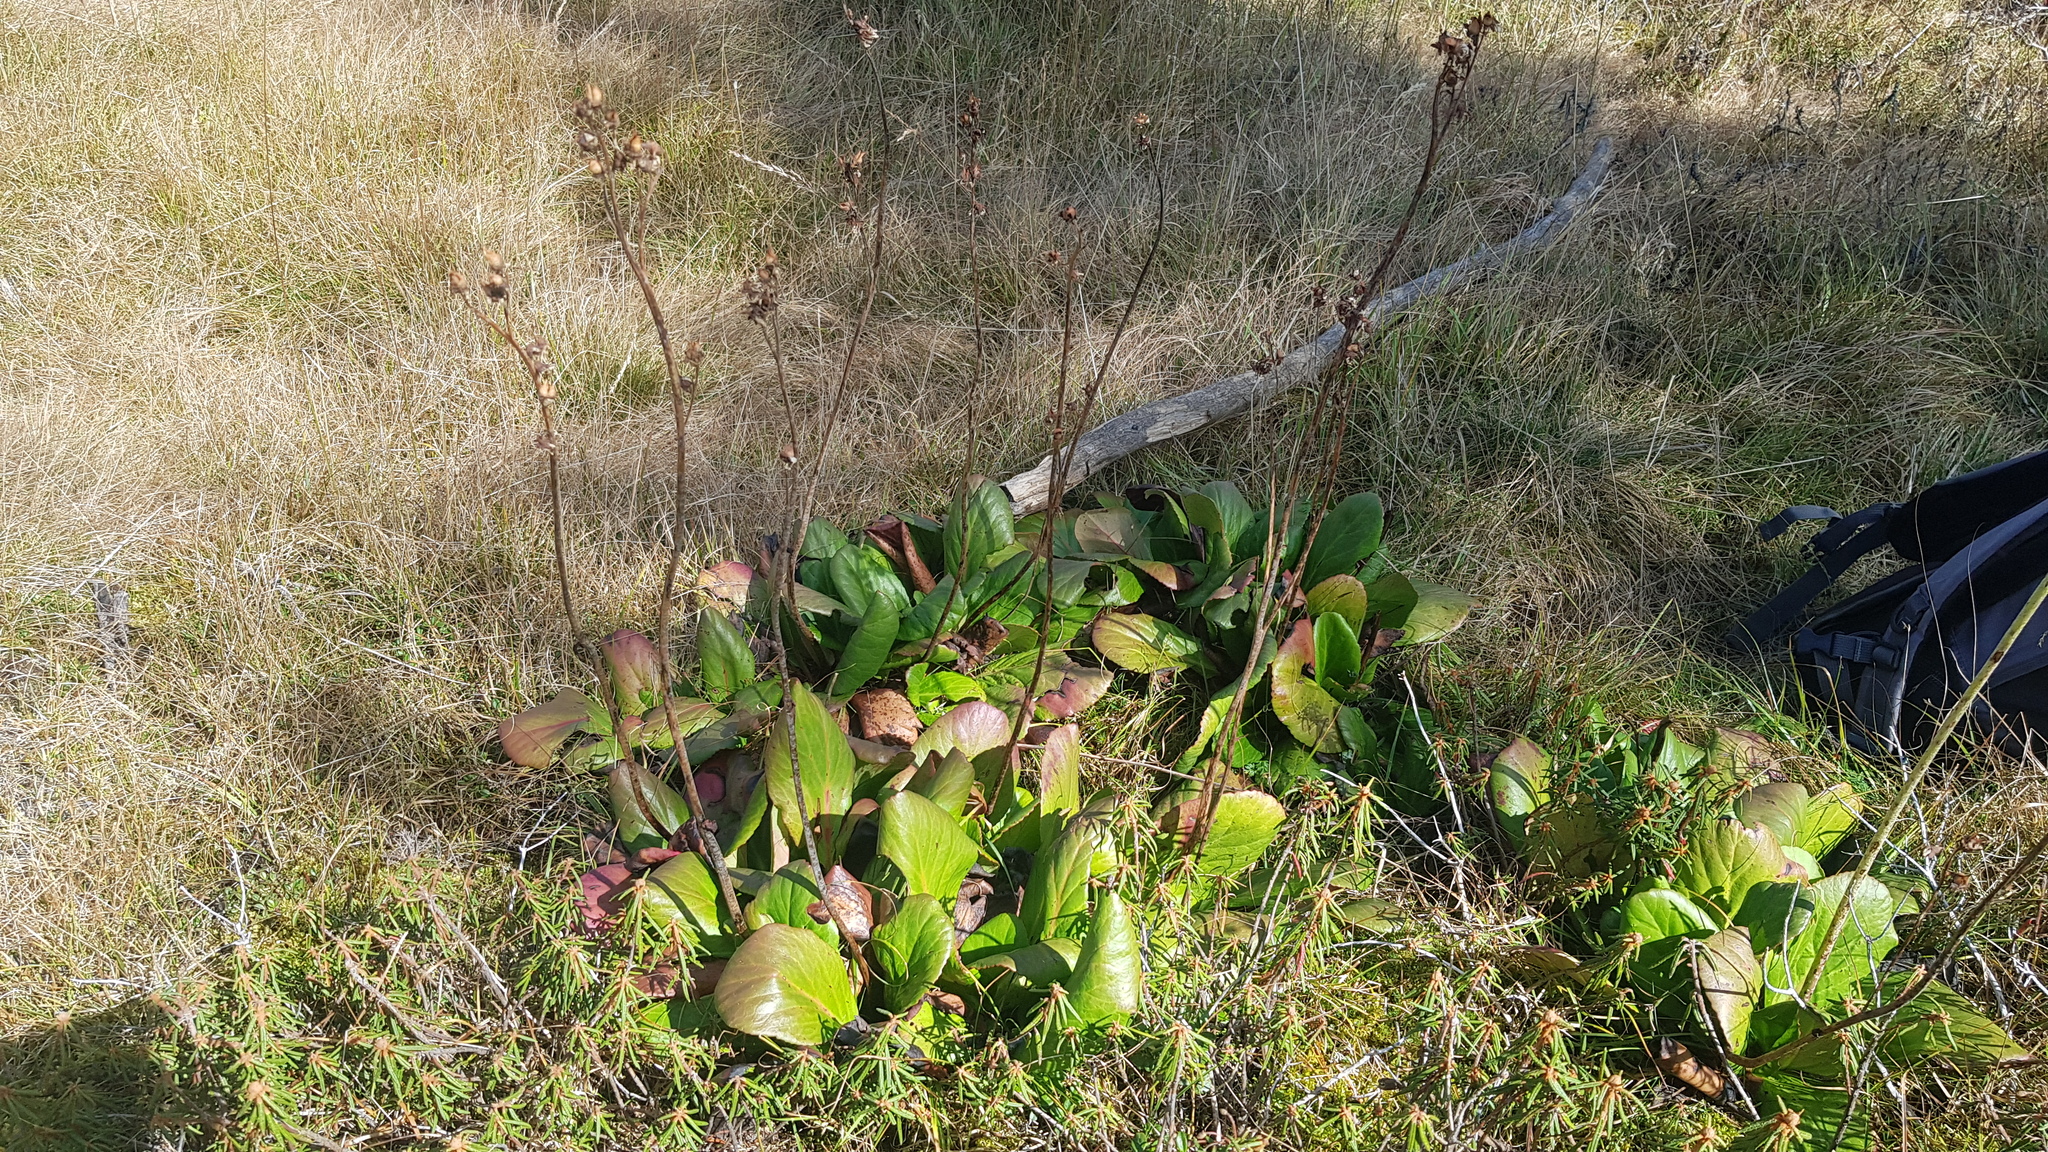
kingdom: Plantae
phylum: Tracheophyta
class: Magnoliopsida
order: Saxifragales
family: Saxifragaceae
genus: Bergenia
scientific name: Bergenia crassifolia
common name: Elephant-ears
